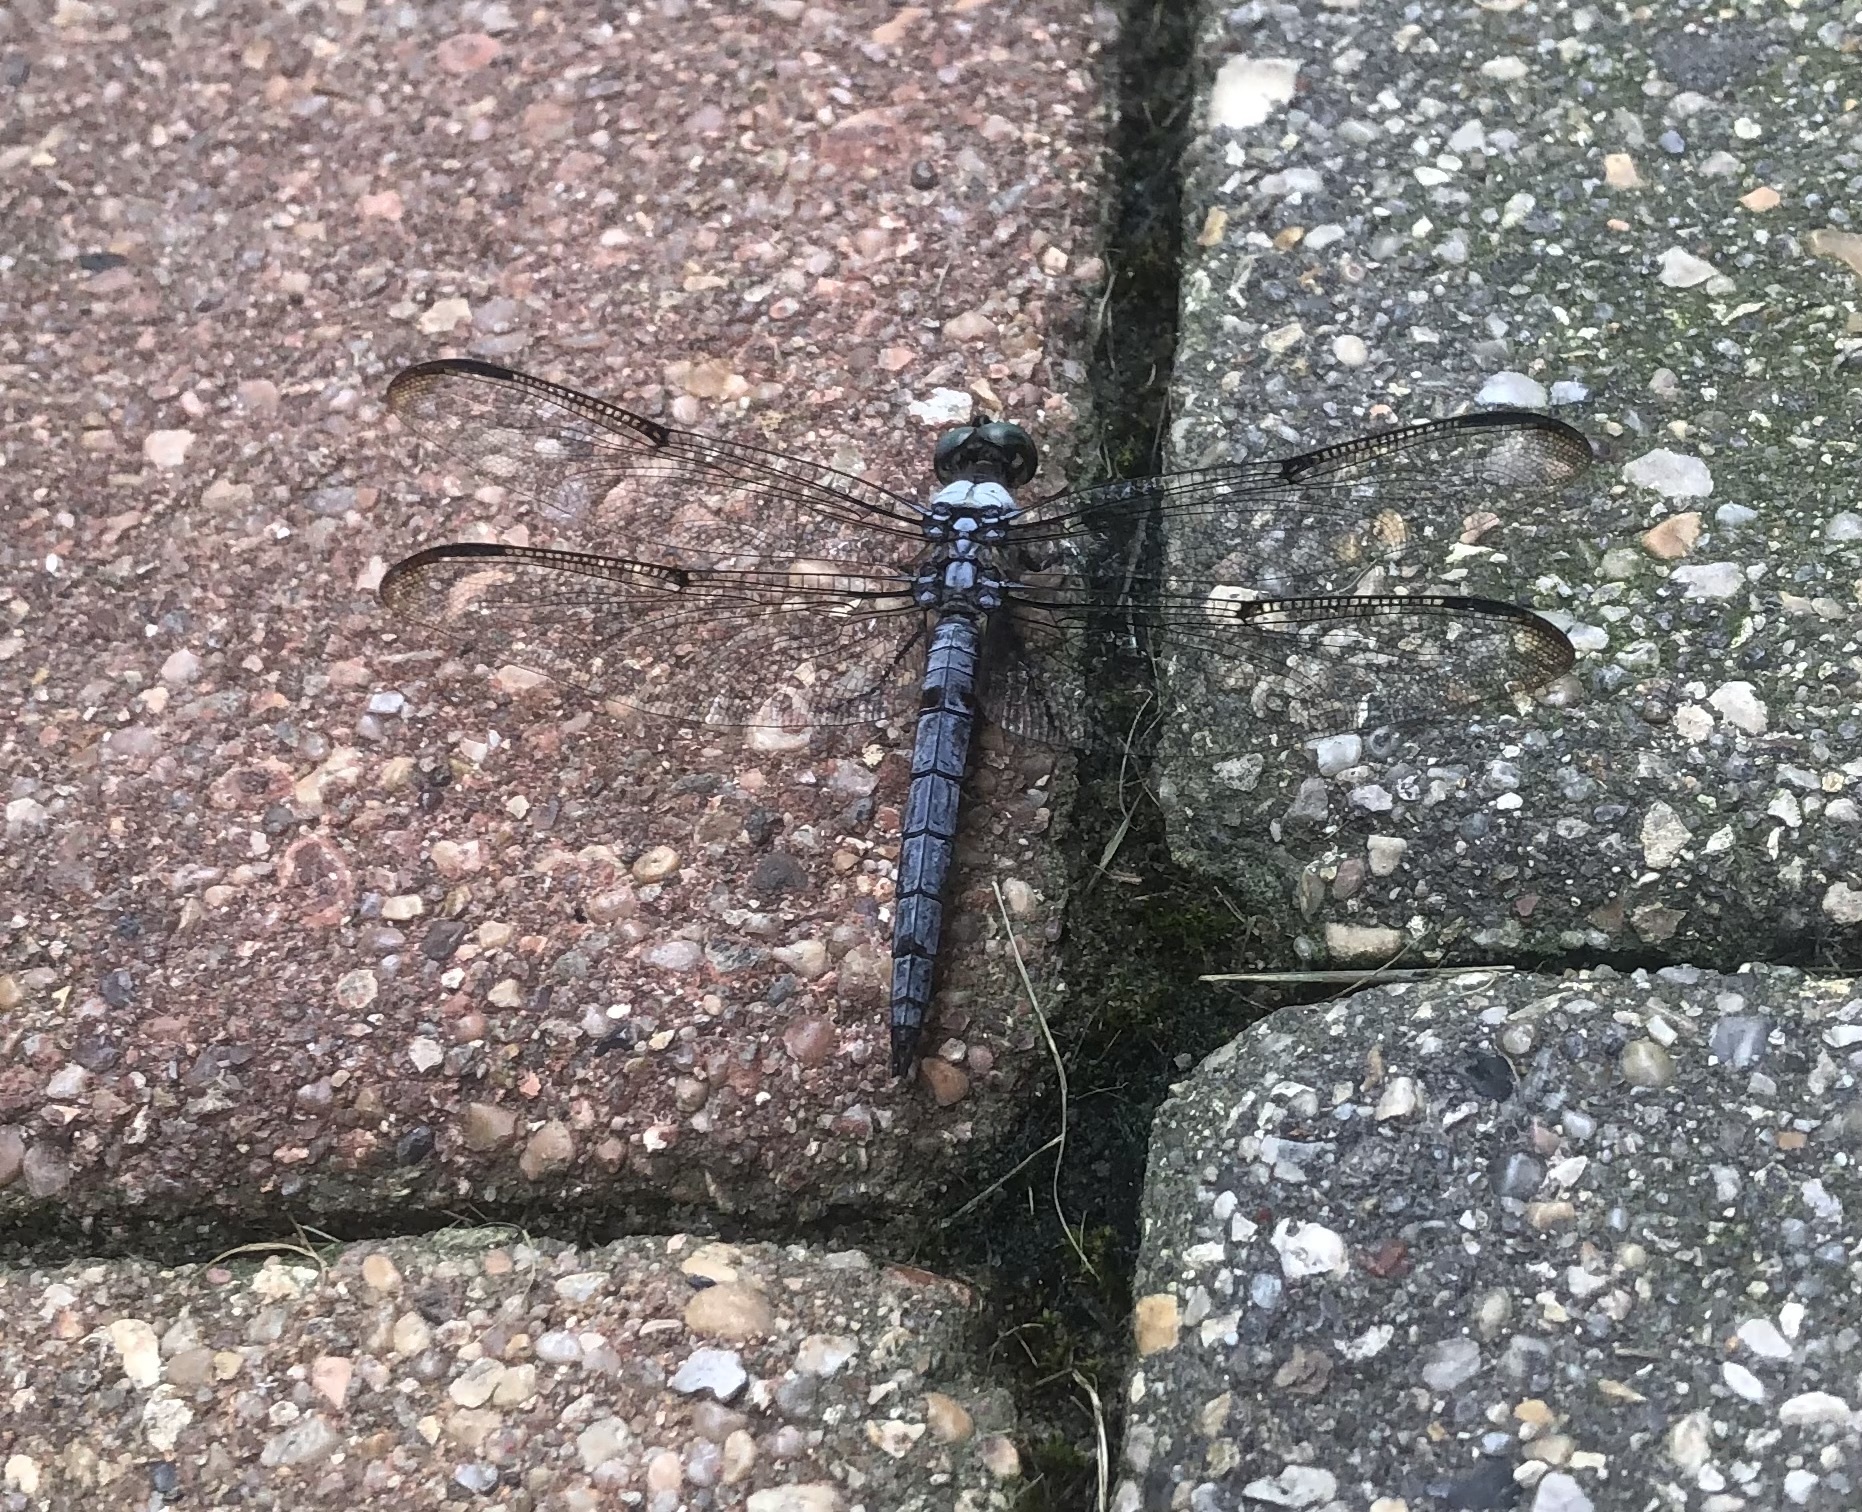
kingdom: Animalia
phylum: Arthropoda
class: Insecta
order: Odonata
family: Libellulidae
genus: Libellula
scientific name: Libellula vibrans
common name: Great blue skimmer
